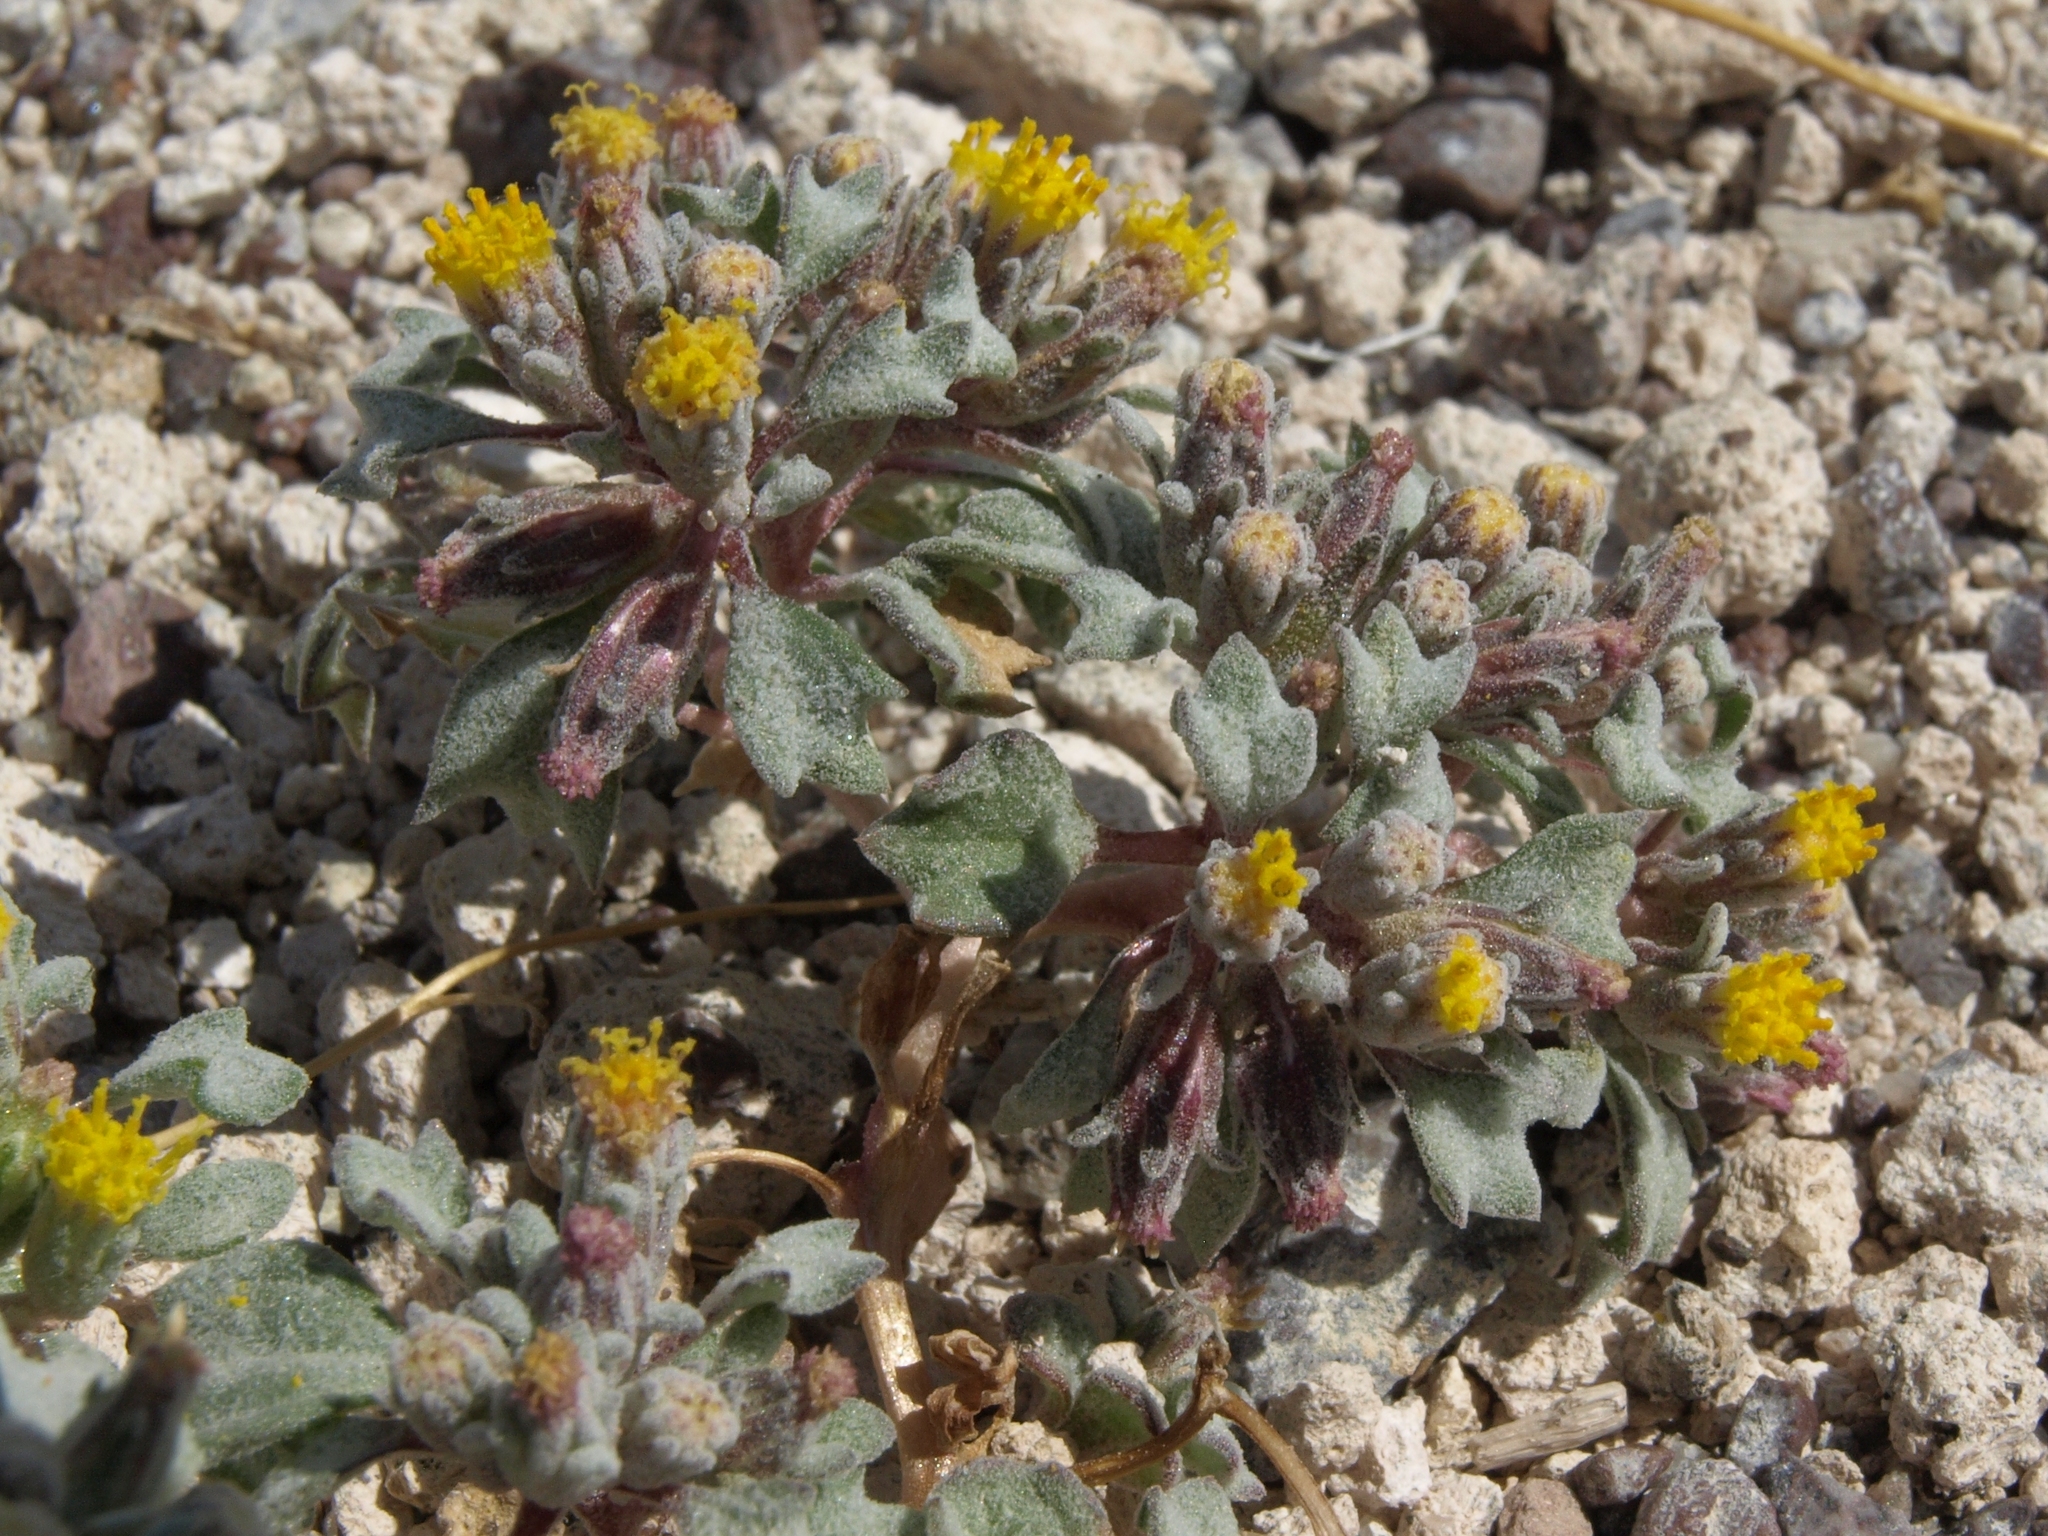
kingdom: Plantae
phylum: Tracheophyta
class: Magnoliopsida
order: Asterales
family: Asteraceae
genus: Psathyrotes
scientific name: Psathyrotes annua
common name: Mealy rosettes
